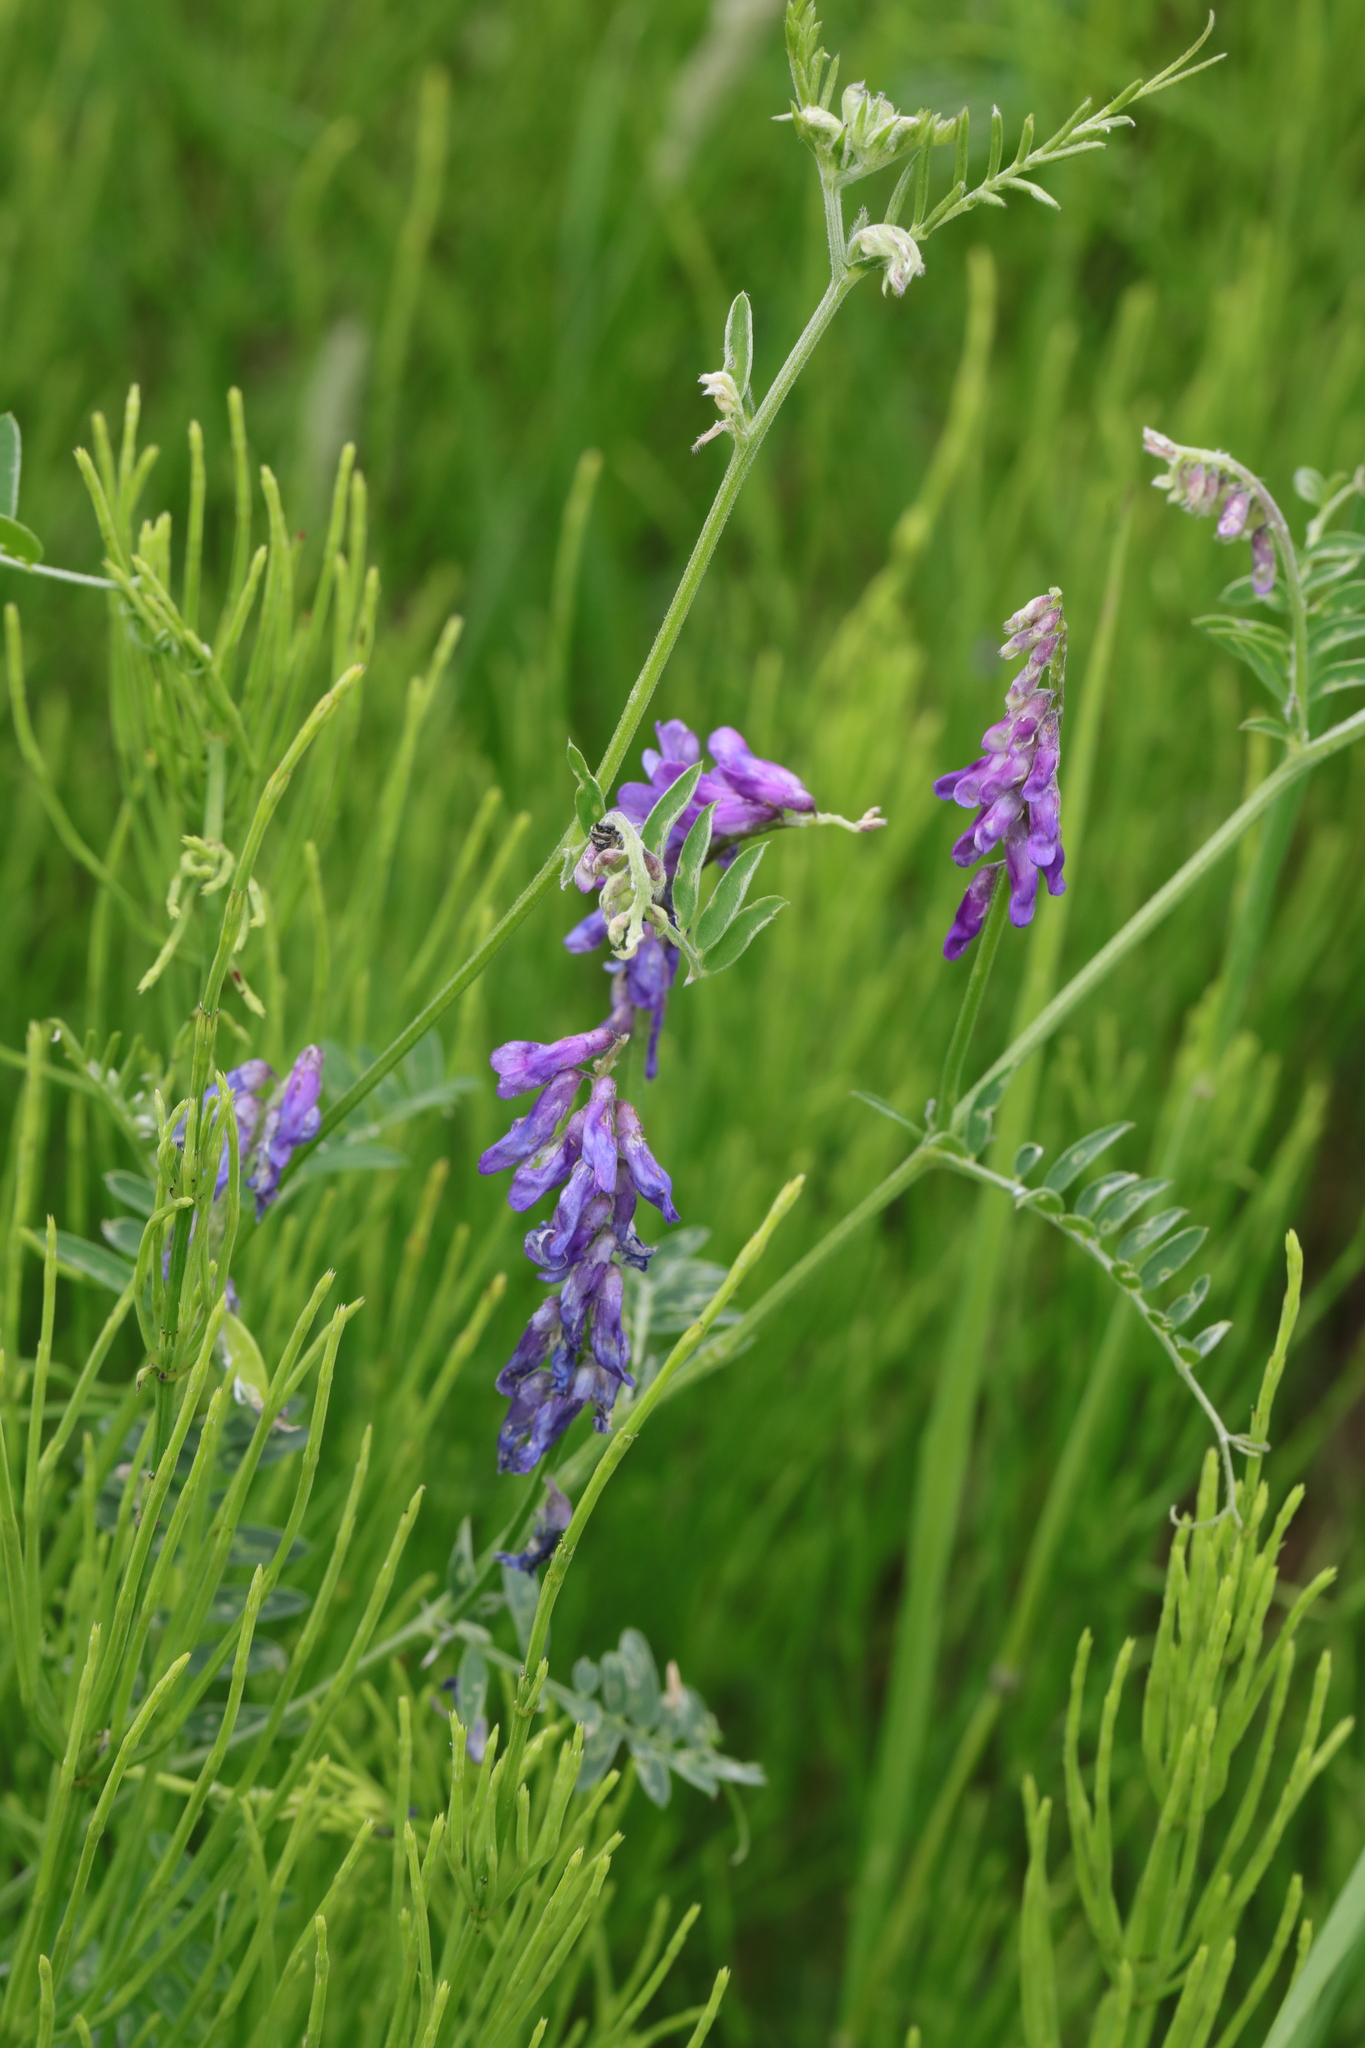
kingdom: Plantae
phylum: Tracheophyta
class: Magnoliopsida
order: Fabales
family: Fabaceae
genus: Vicia
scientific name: Vicia cracca
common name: Bird vetch
